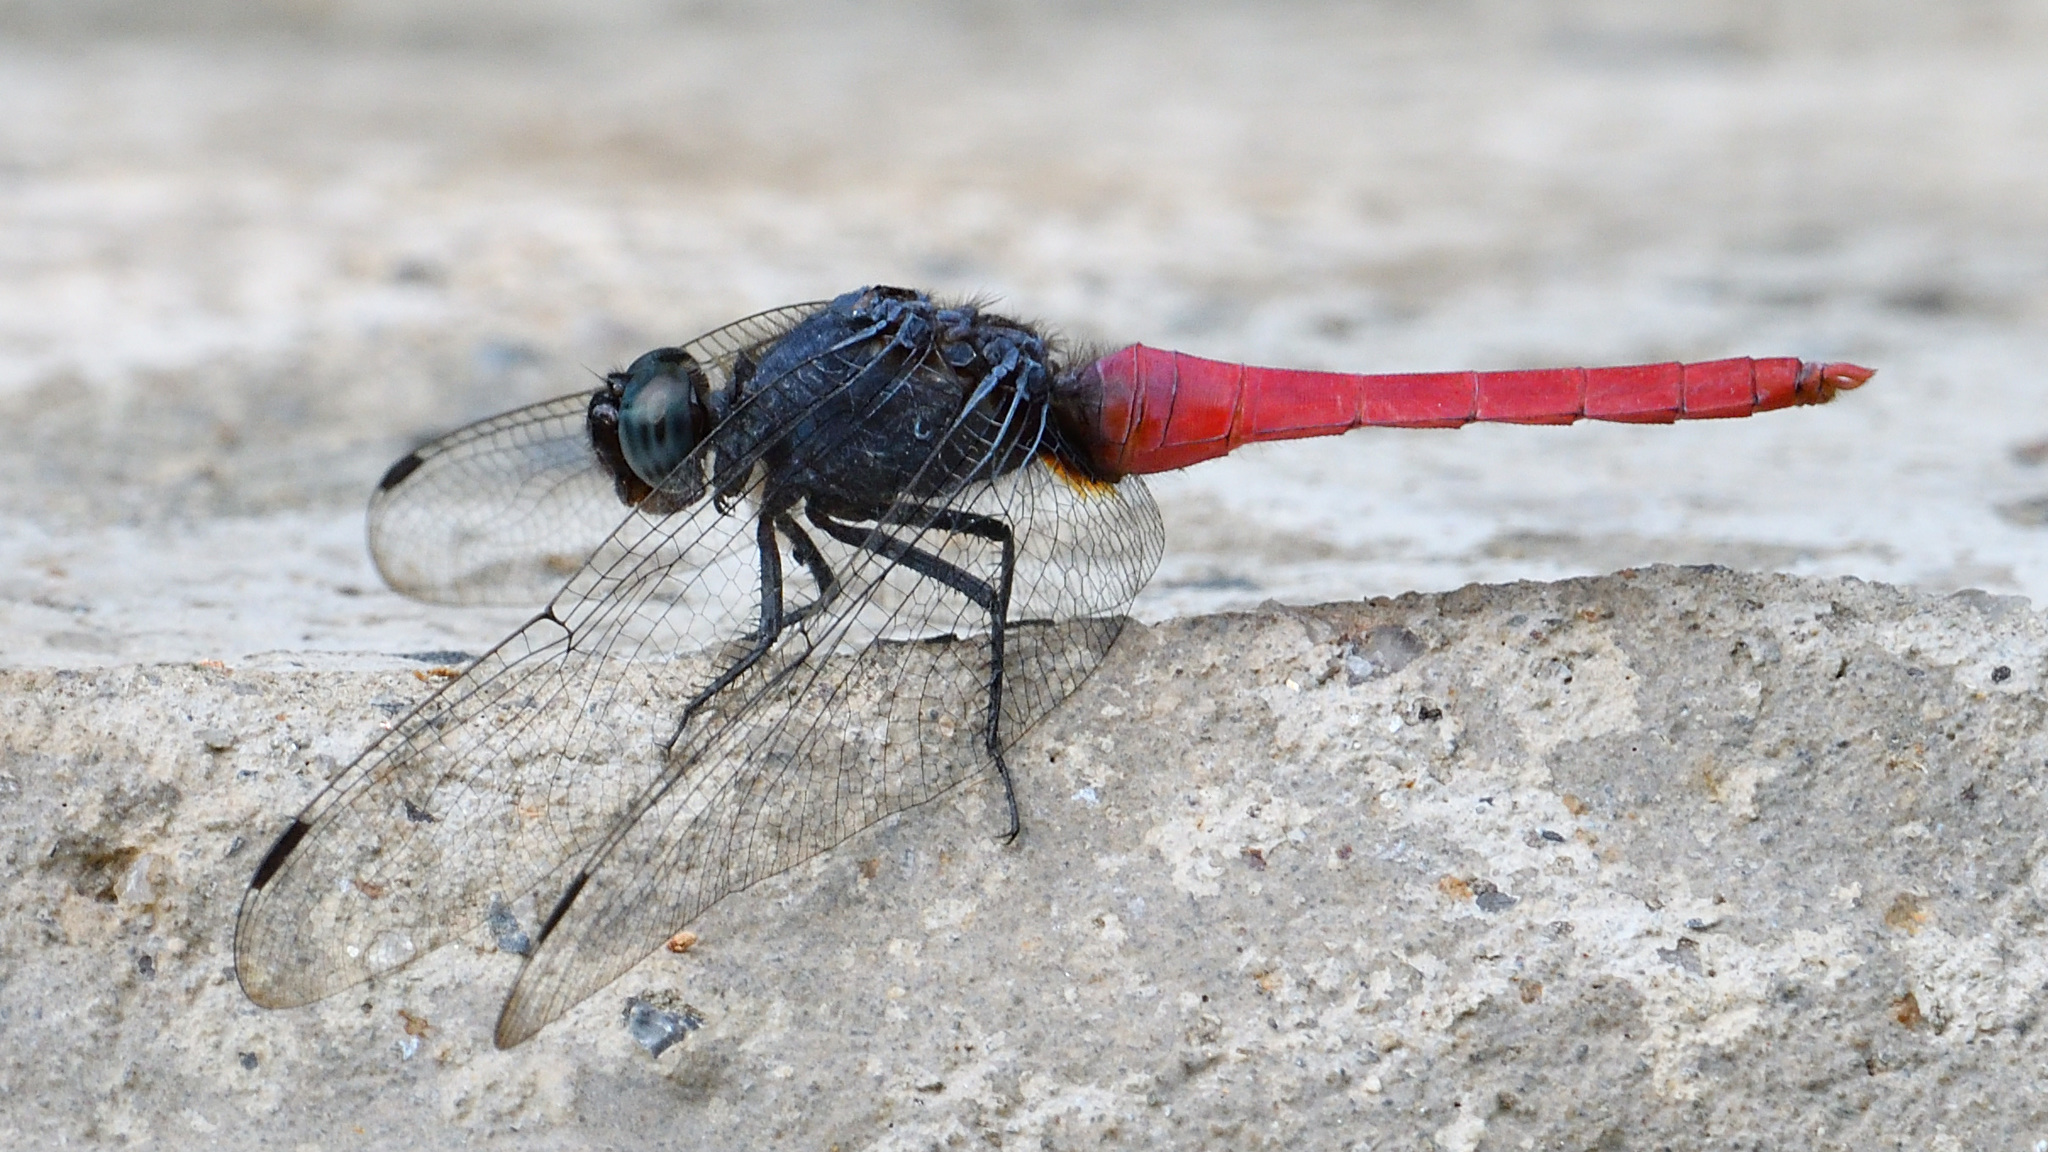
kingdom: Animalia
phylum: Arthropoda
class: Insecta
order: Odonata
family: Libellulidae
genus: Orthetrum
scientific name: Orthetrum pruinosum
